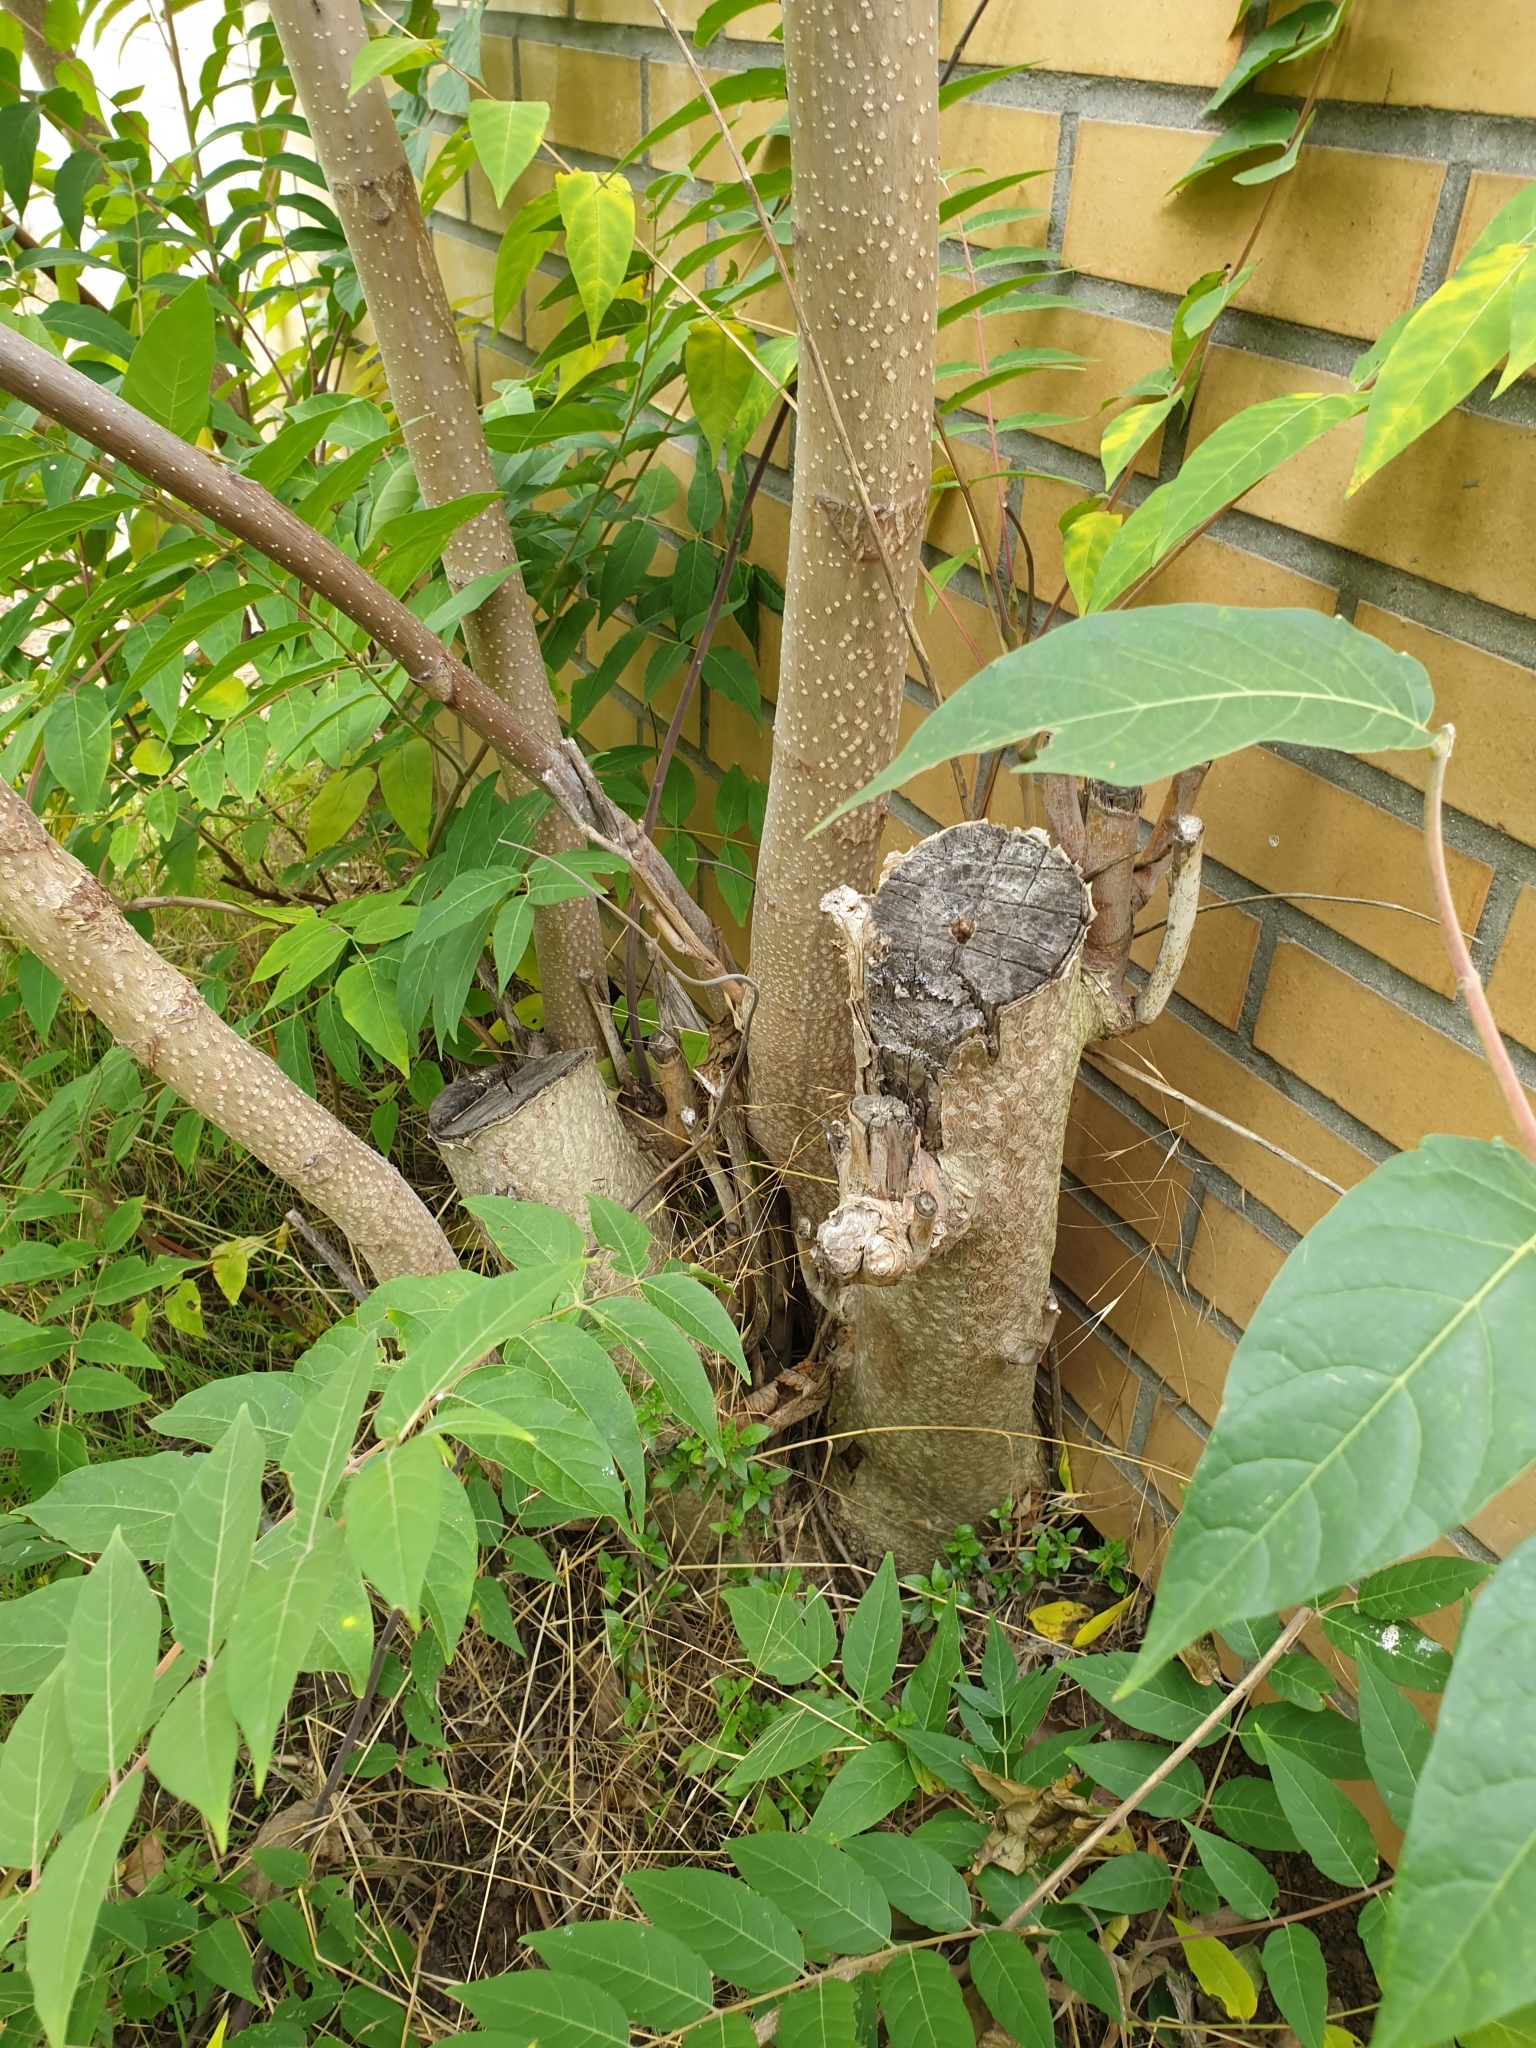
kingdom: Plantae
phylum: Tracheophyta
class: Magnoliopsida
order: Sapindales
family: Simaroubaceae
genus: Ailanthus
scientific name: Ailanthus altissima
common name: Tree-of-heaven
